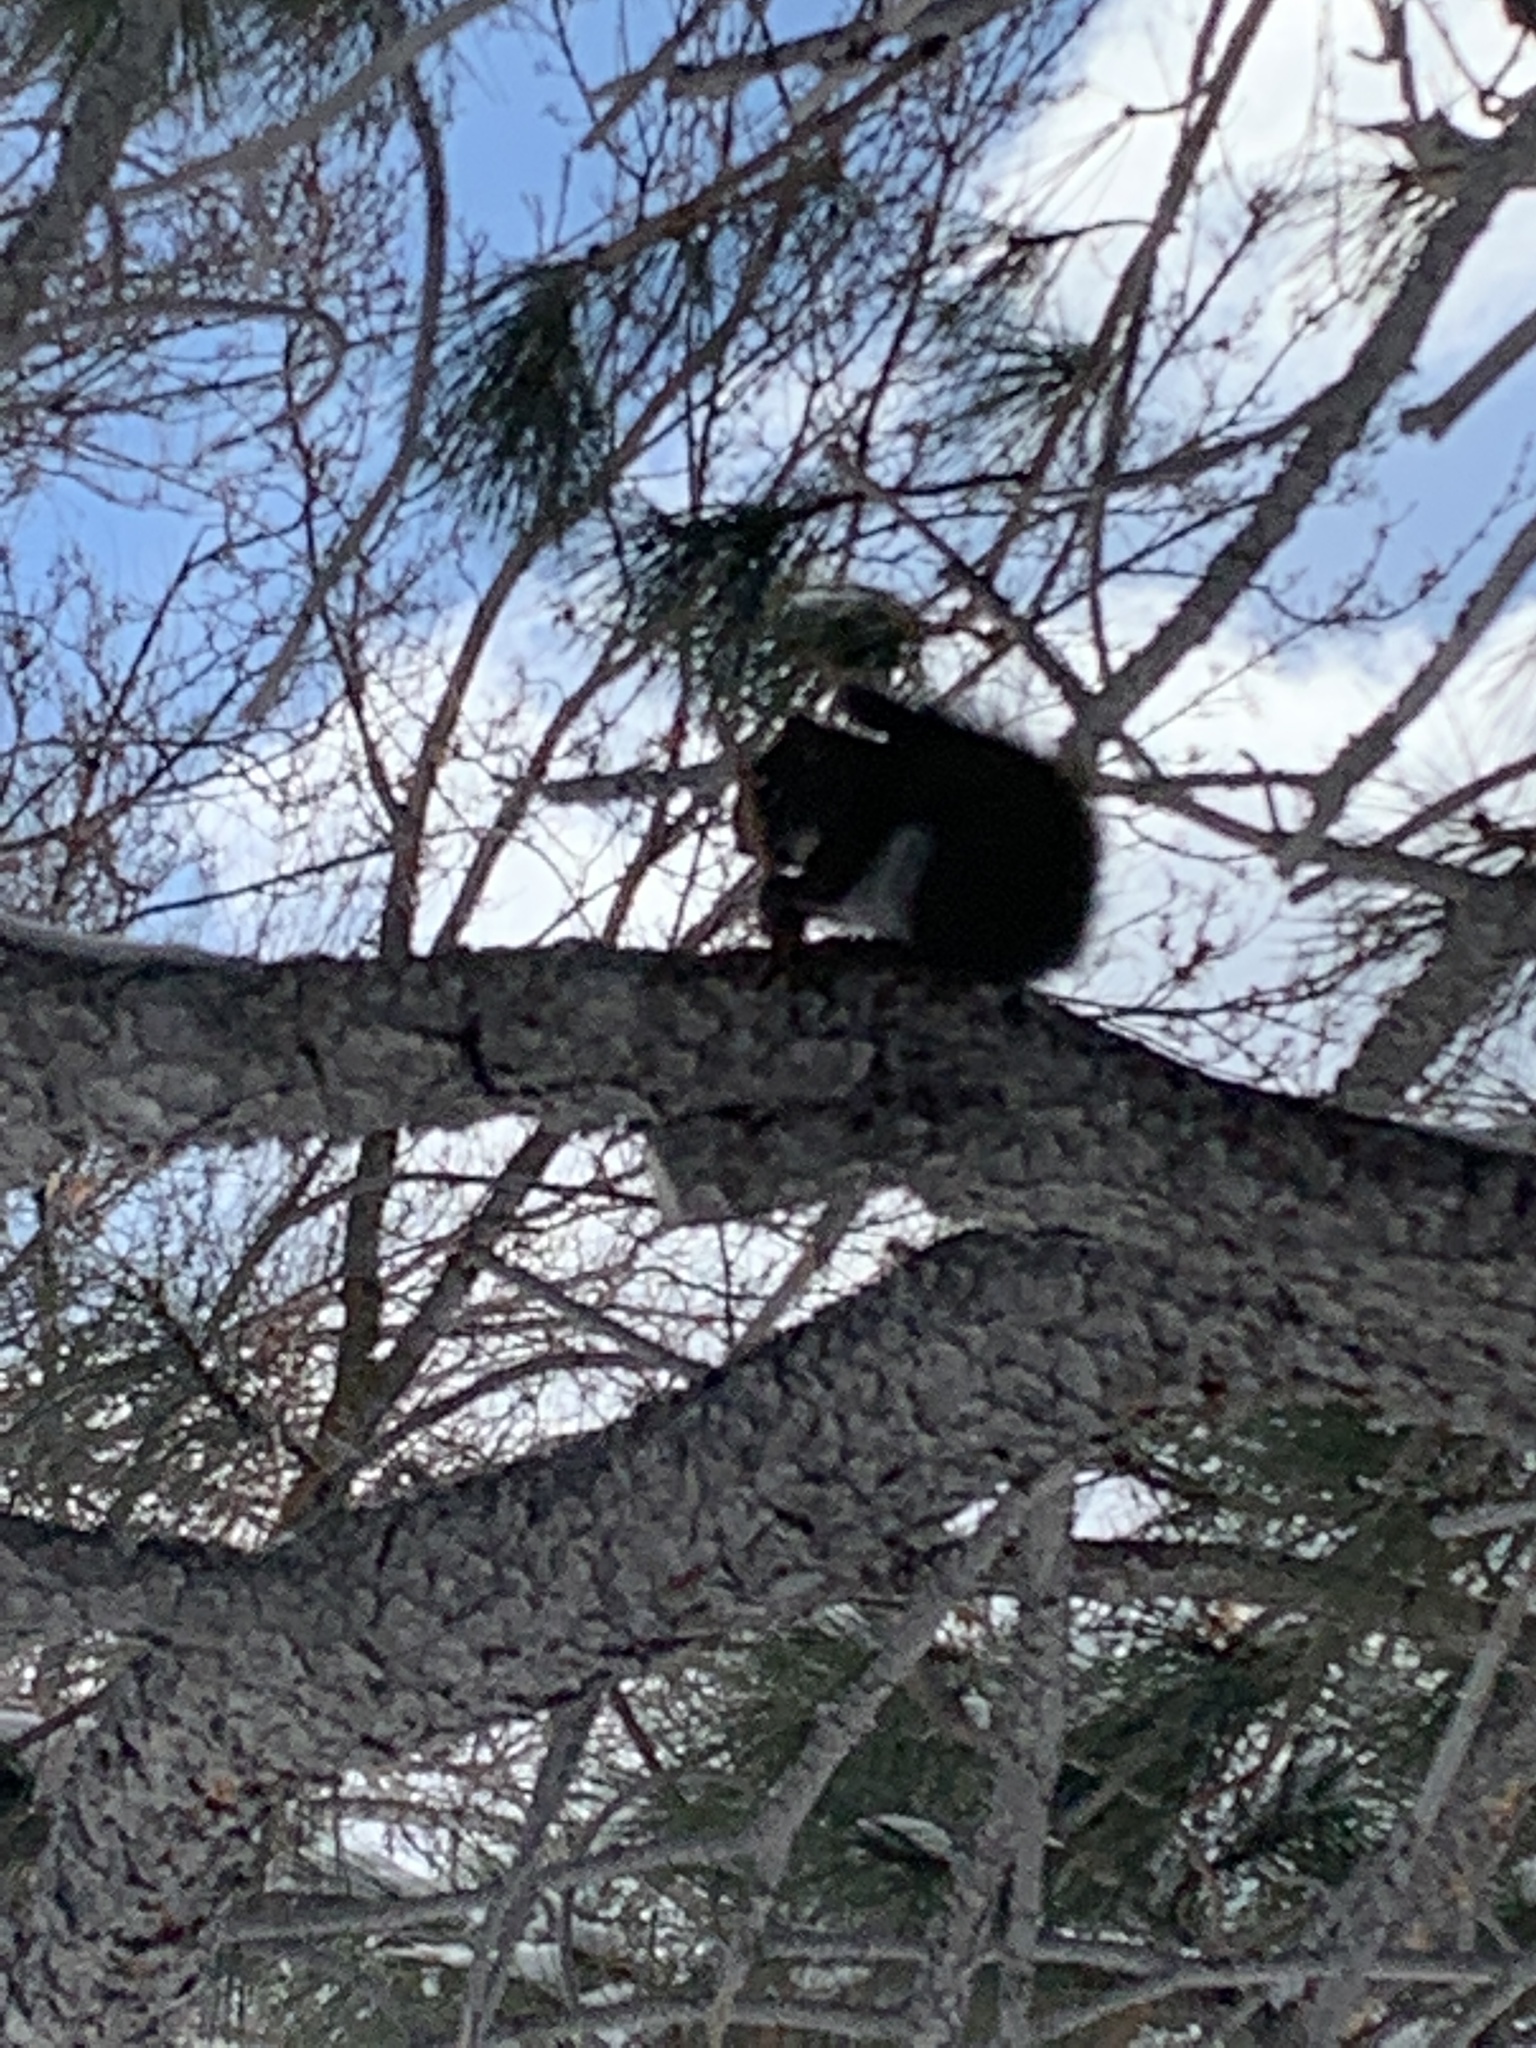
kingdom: Animalia
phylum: Chordata
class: Mammalia
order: Rodentia
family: Sciuridae
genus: Tamiasciurus
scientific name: Tamiasciurus hudsonicus
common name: Red squirrel
